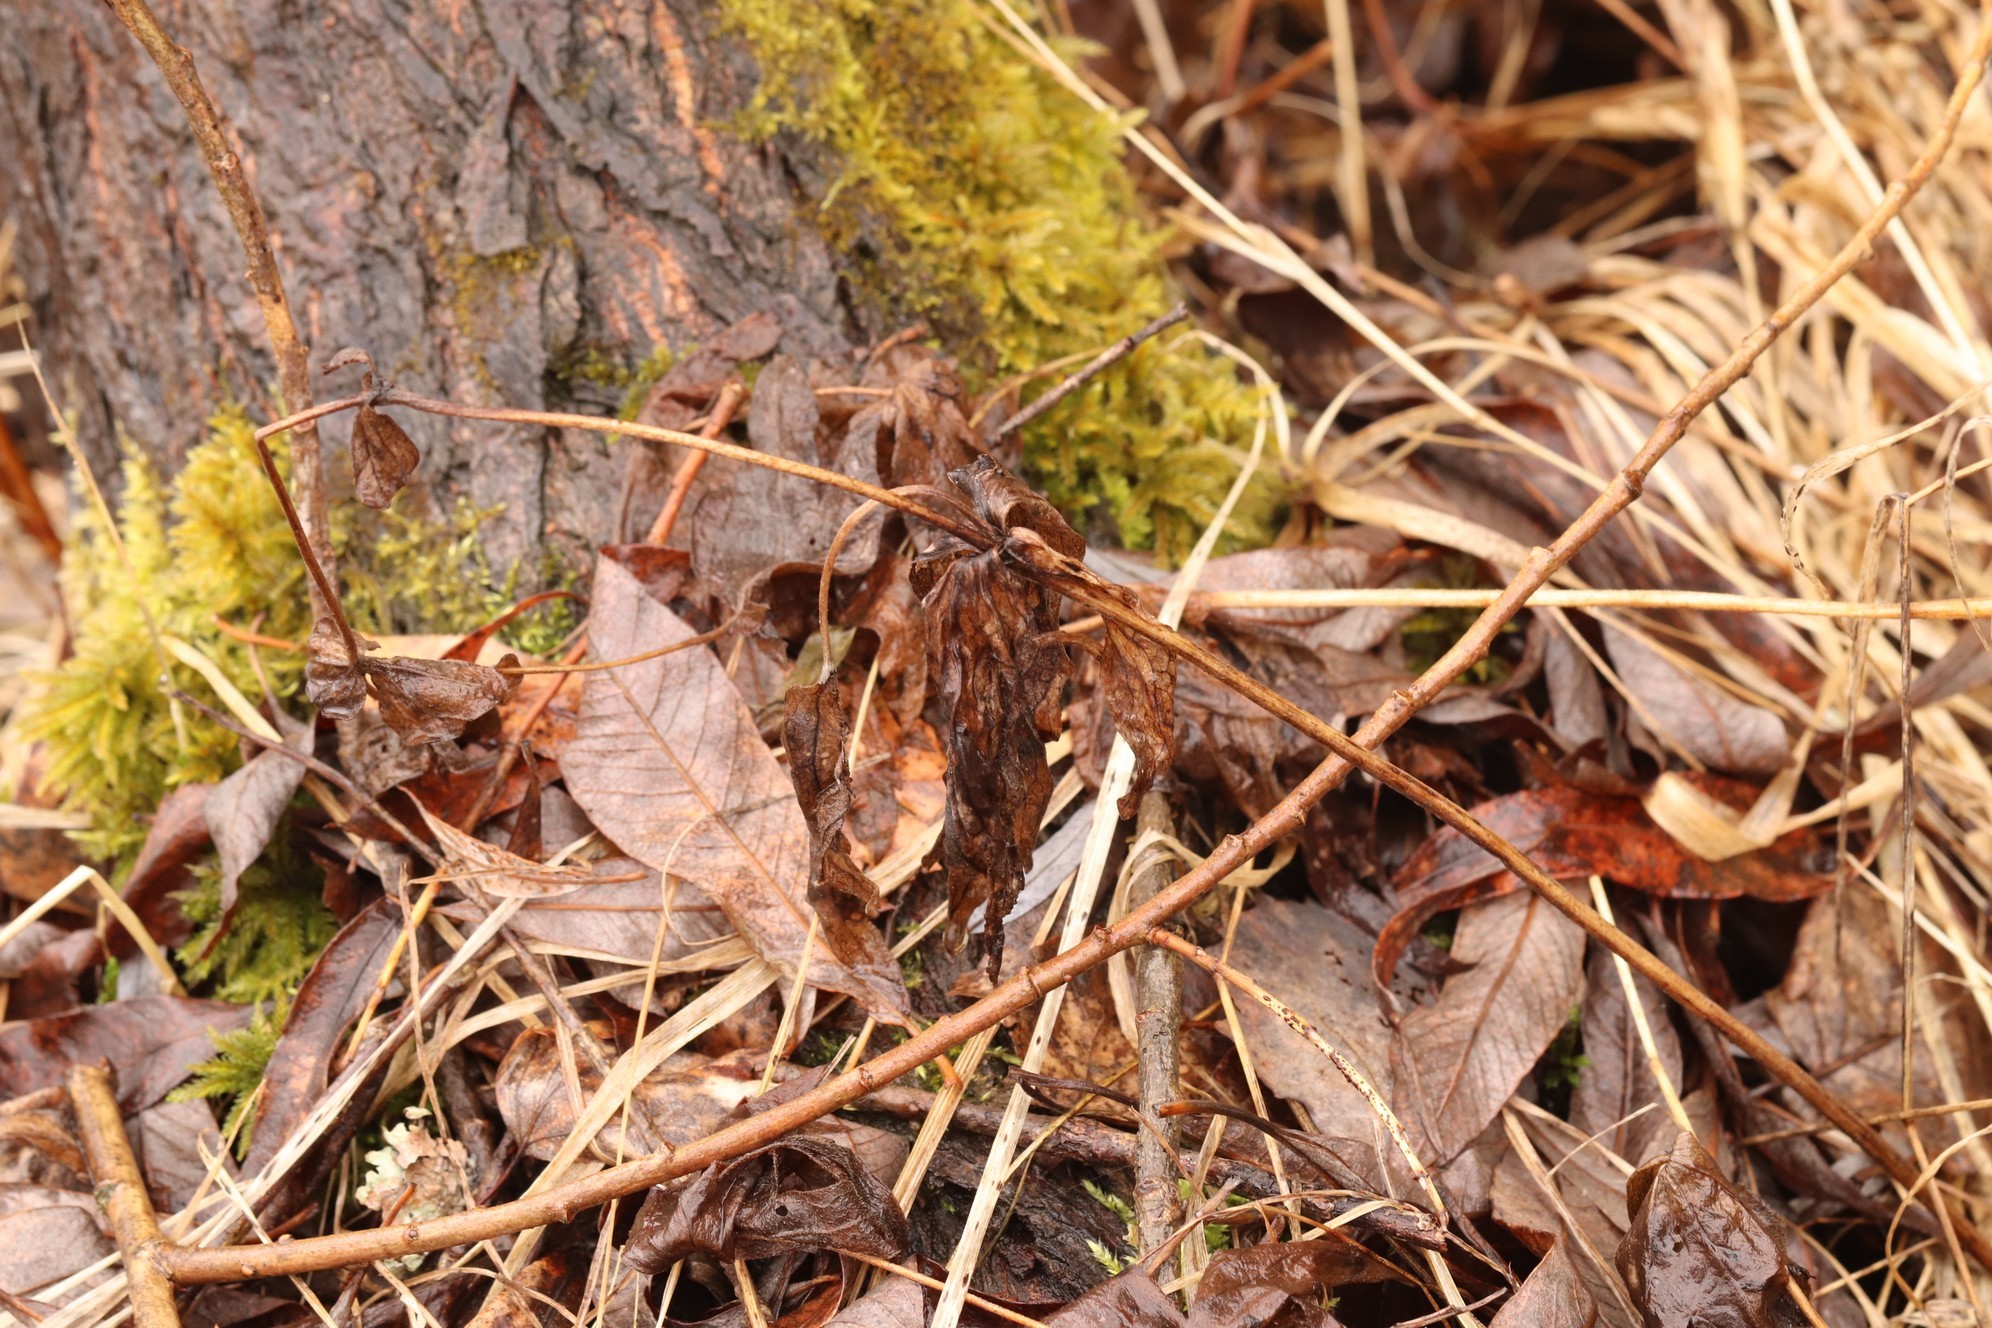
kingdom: Plantae
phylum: Tracheophyta
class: Magnoliopsida
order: Ranunculales
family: Ranunculaceae
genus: Anemonastrum
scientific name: Anemonastrum dichotomum
